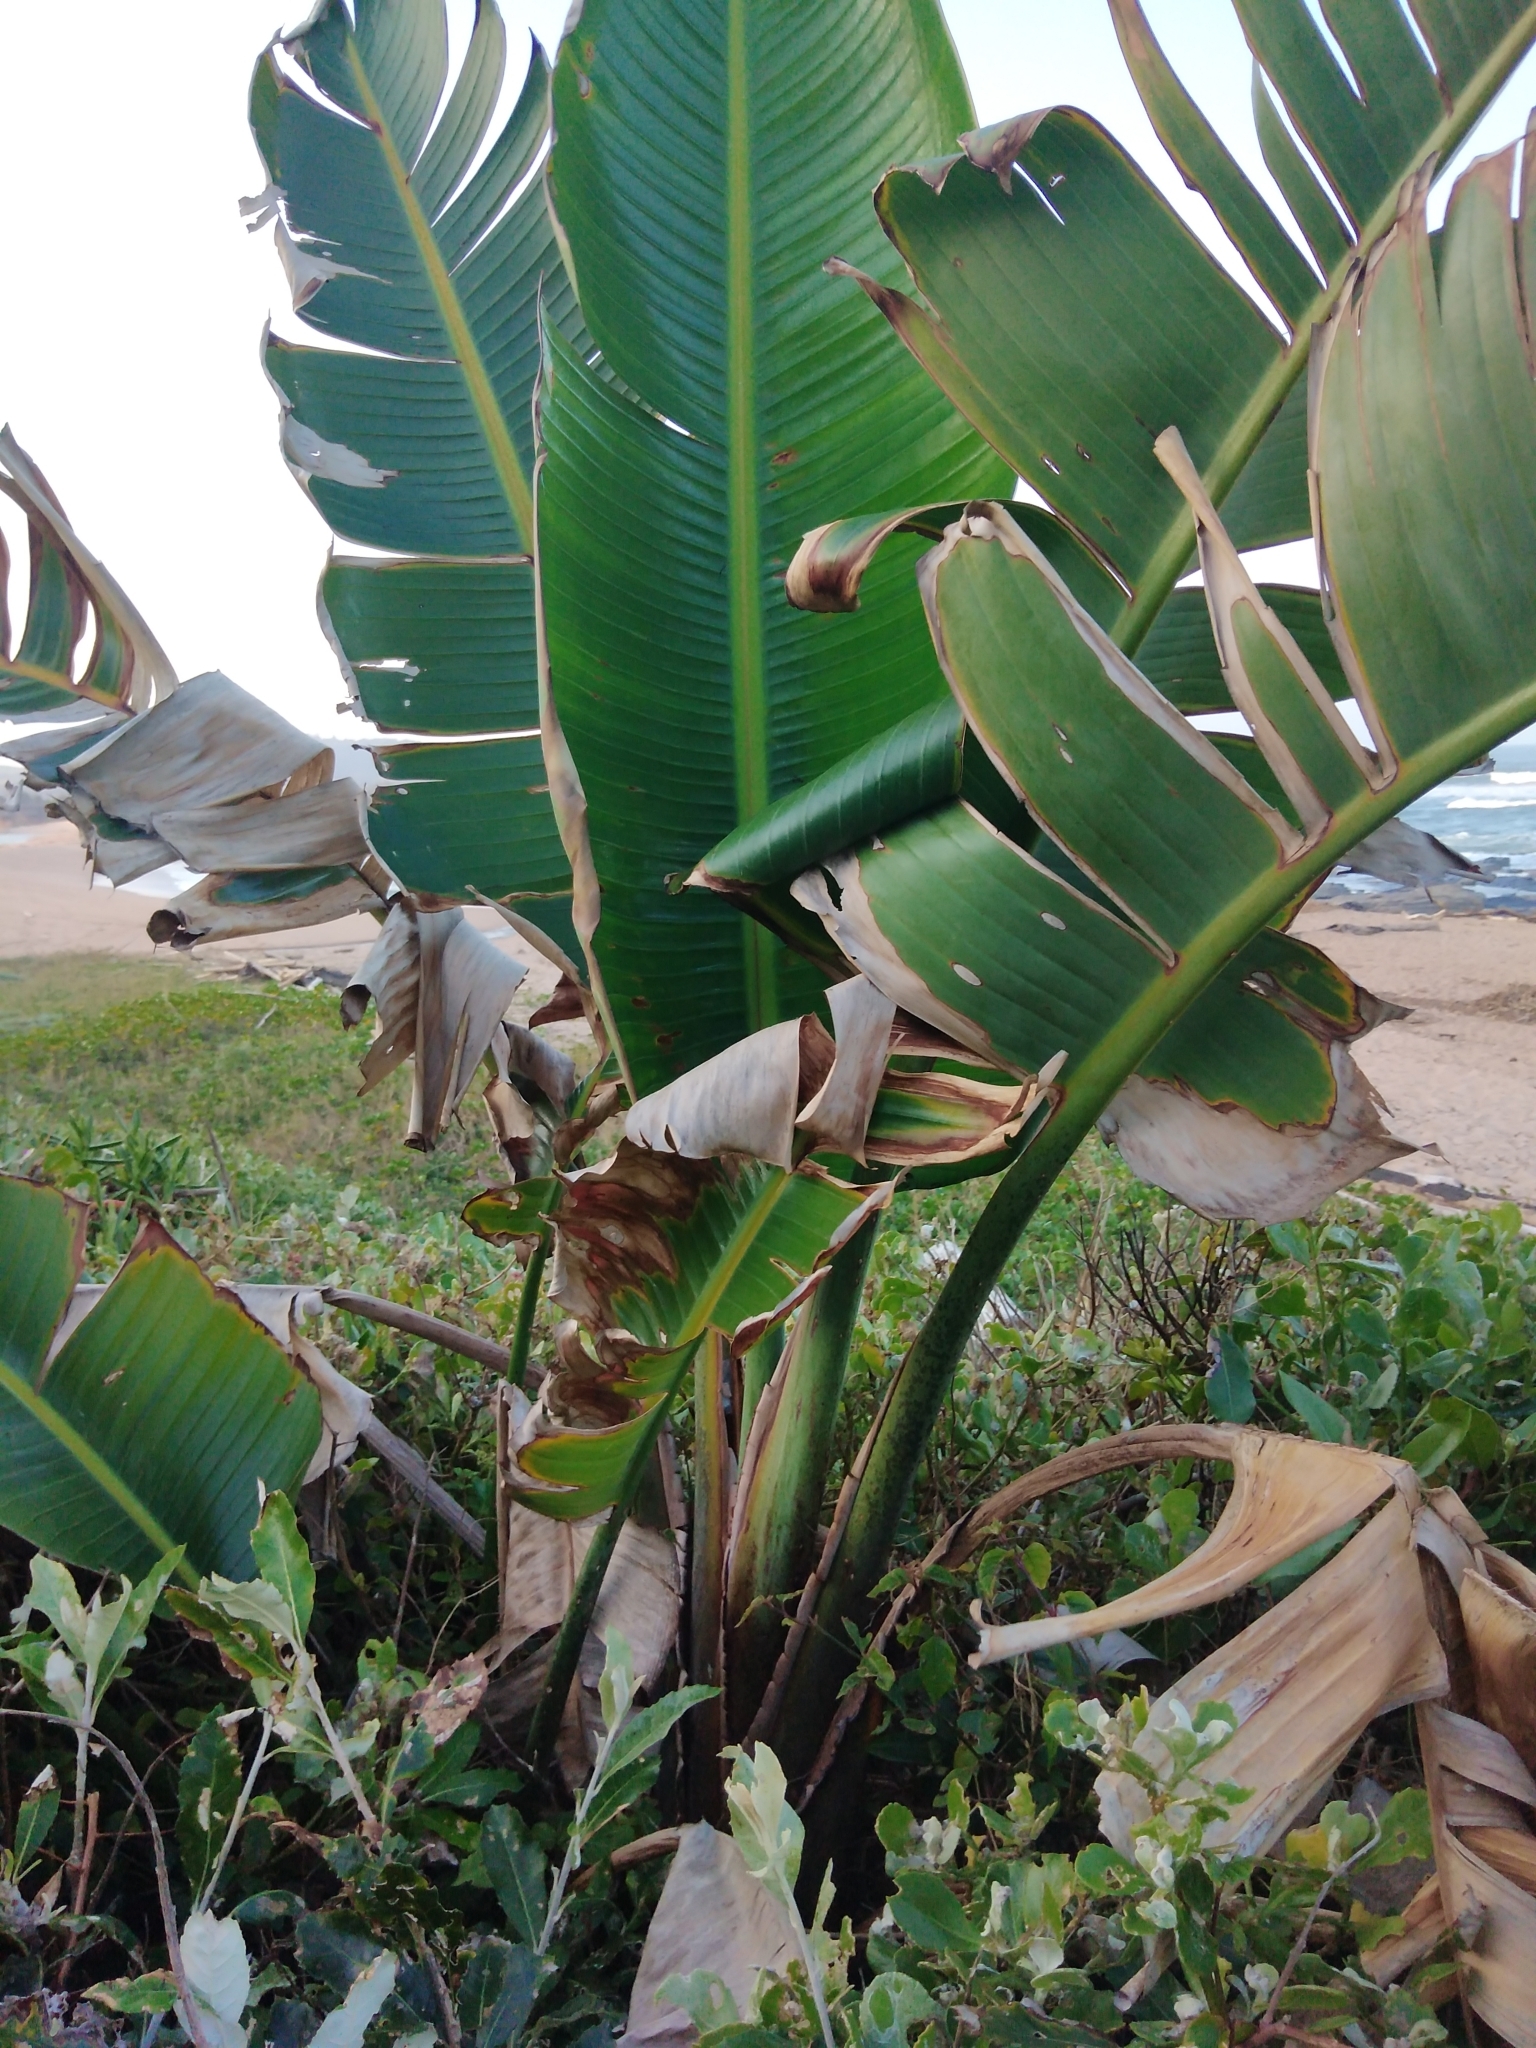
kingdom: Plantae
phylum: Tracheophyta
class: Liliopsida
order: Zingiberales
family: Strelitziaceae
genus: Strelitzia
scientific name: Strelitzia nicolai
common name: Bird-of-paradise tree
